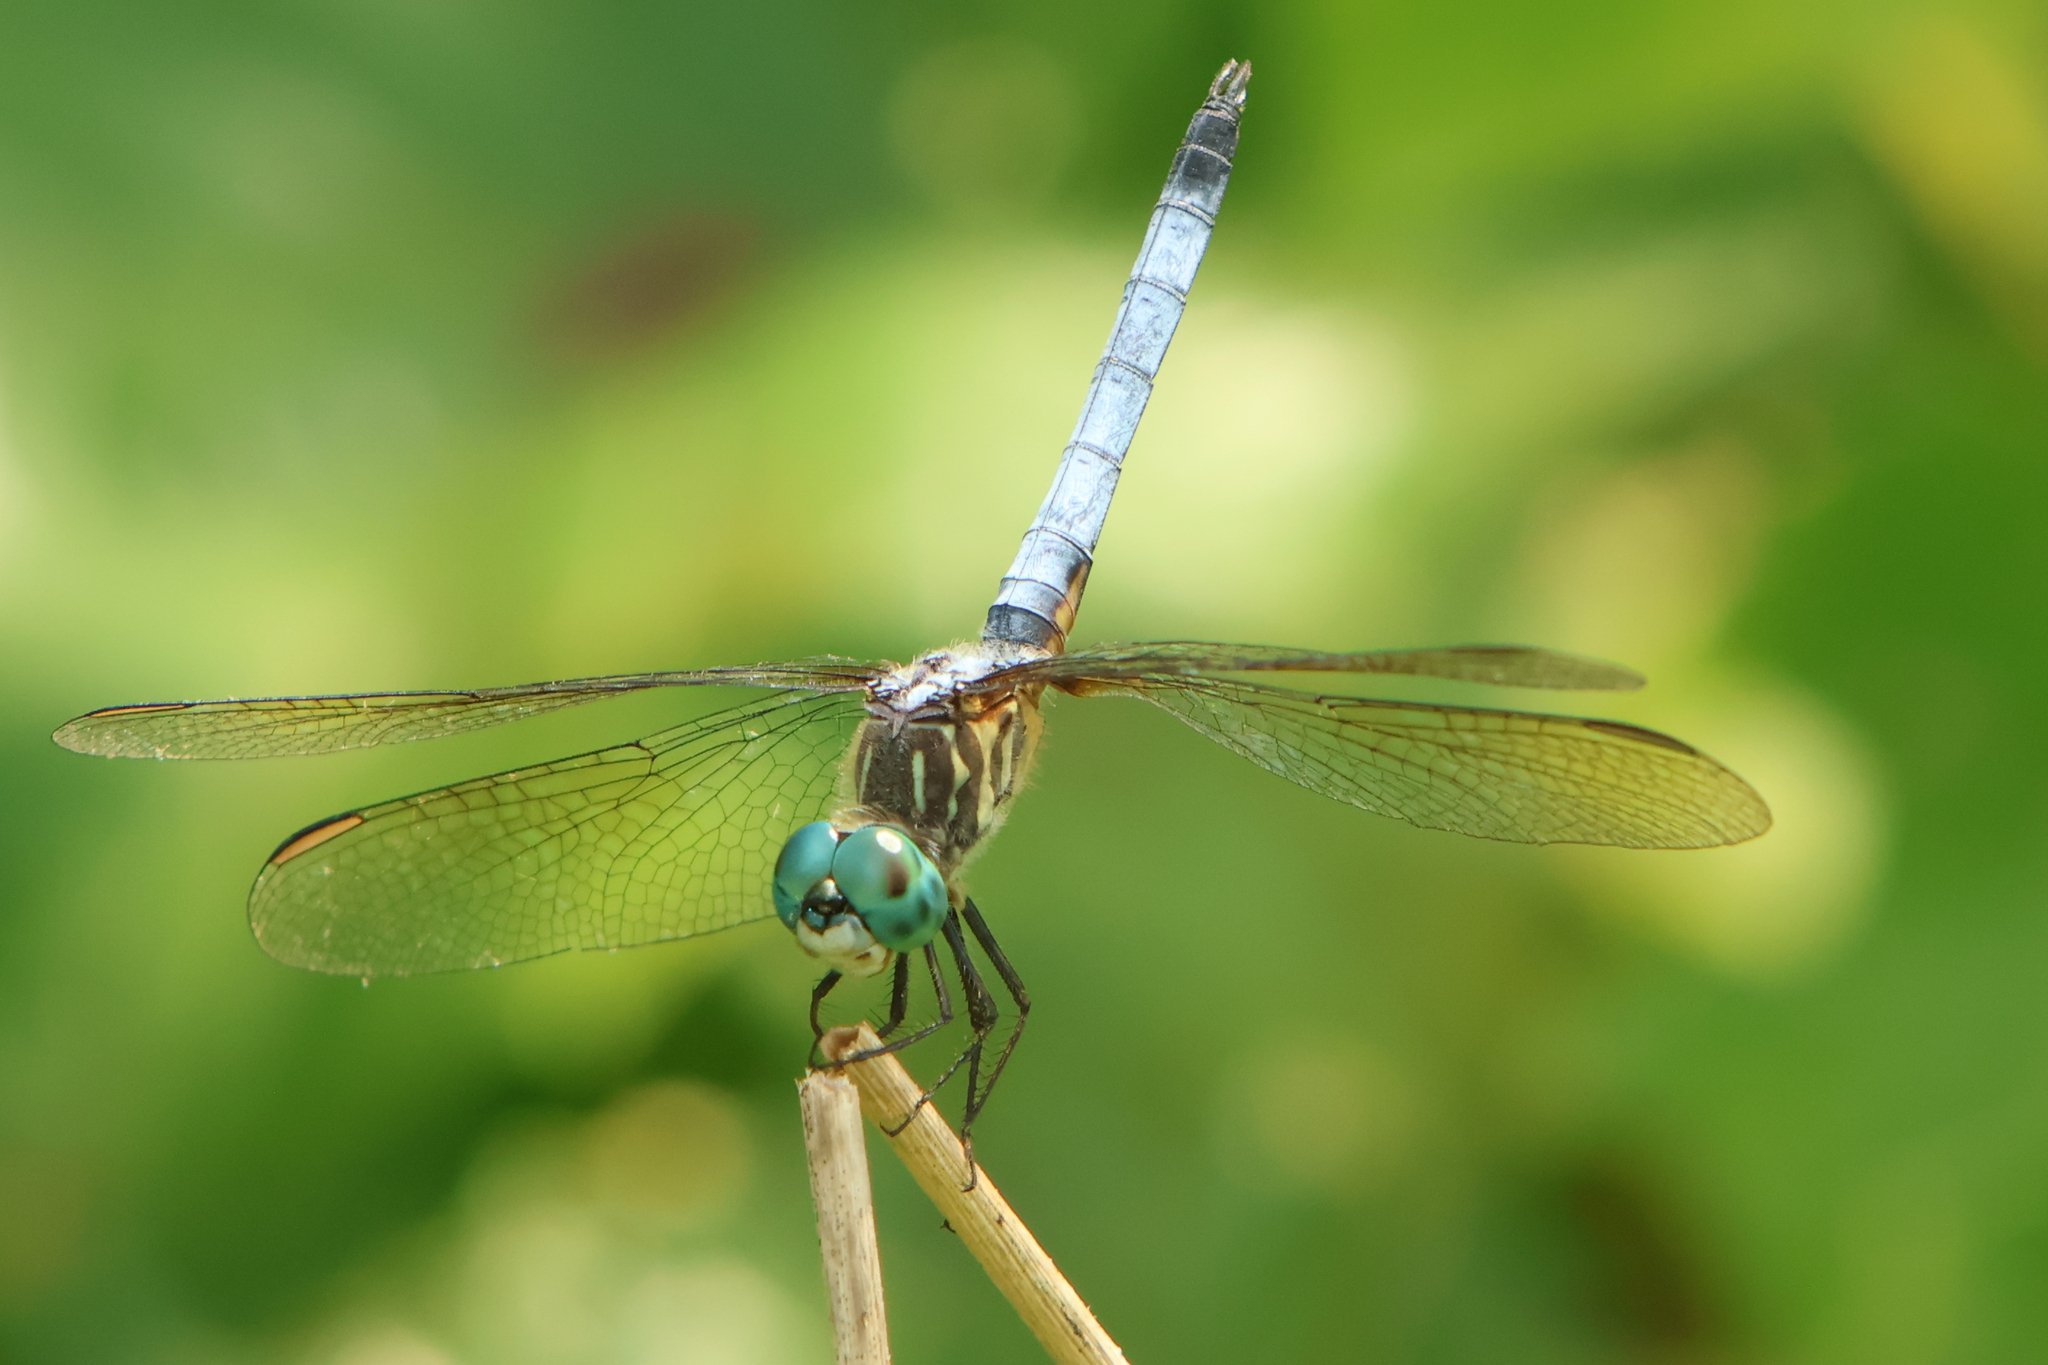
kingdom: Animalia
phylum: Arthropoda
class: Insecta
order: Odonata
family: Libellulidae
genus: Pachydiplax
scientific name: Pachydiplax longipennis
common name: Blue dasher
